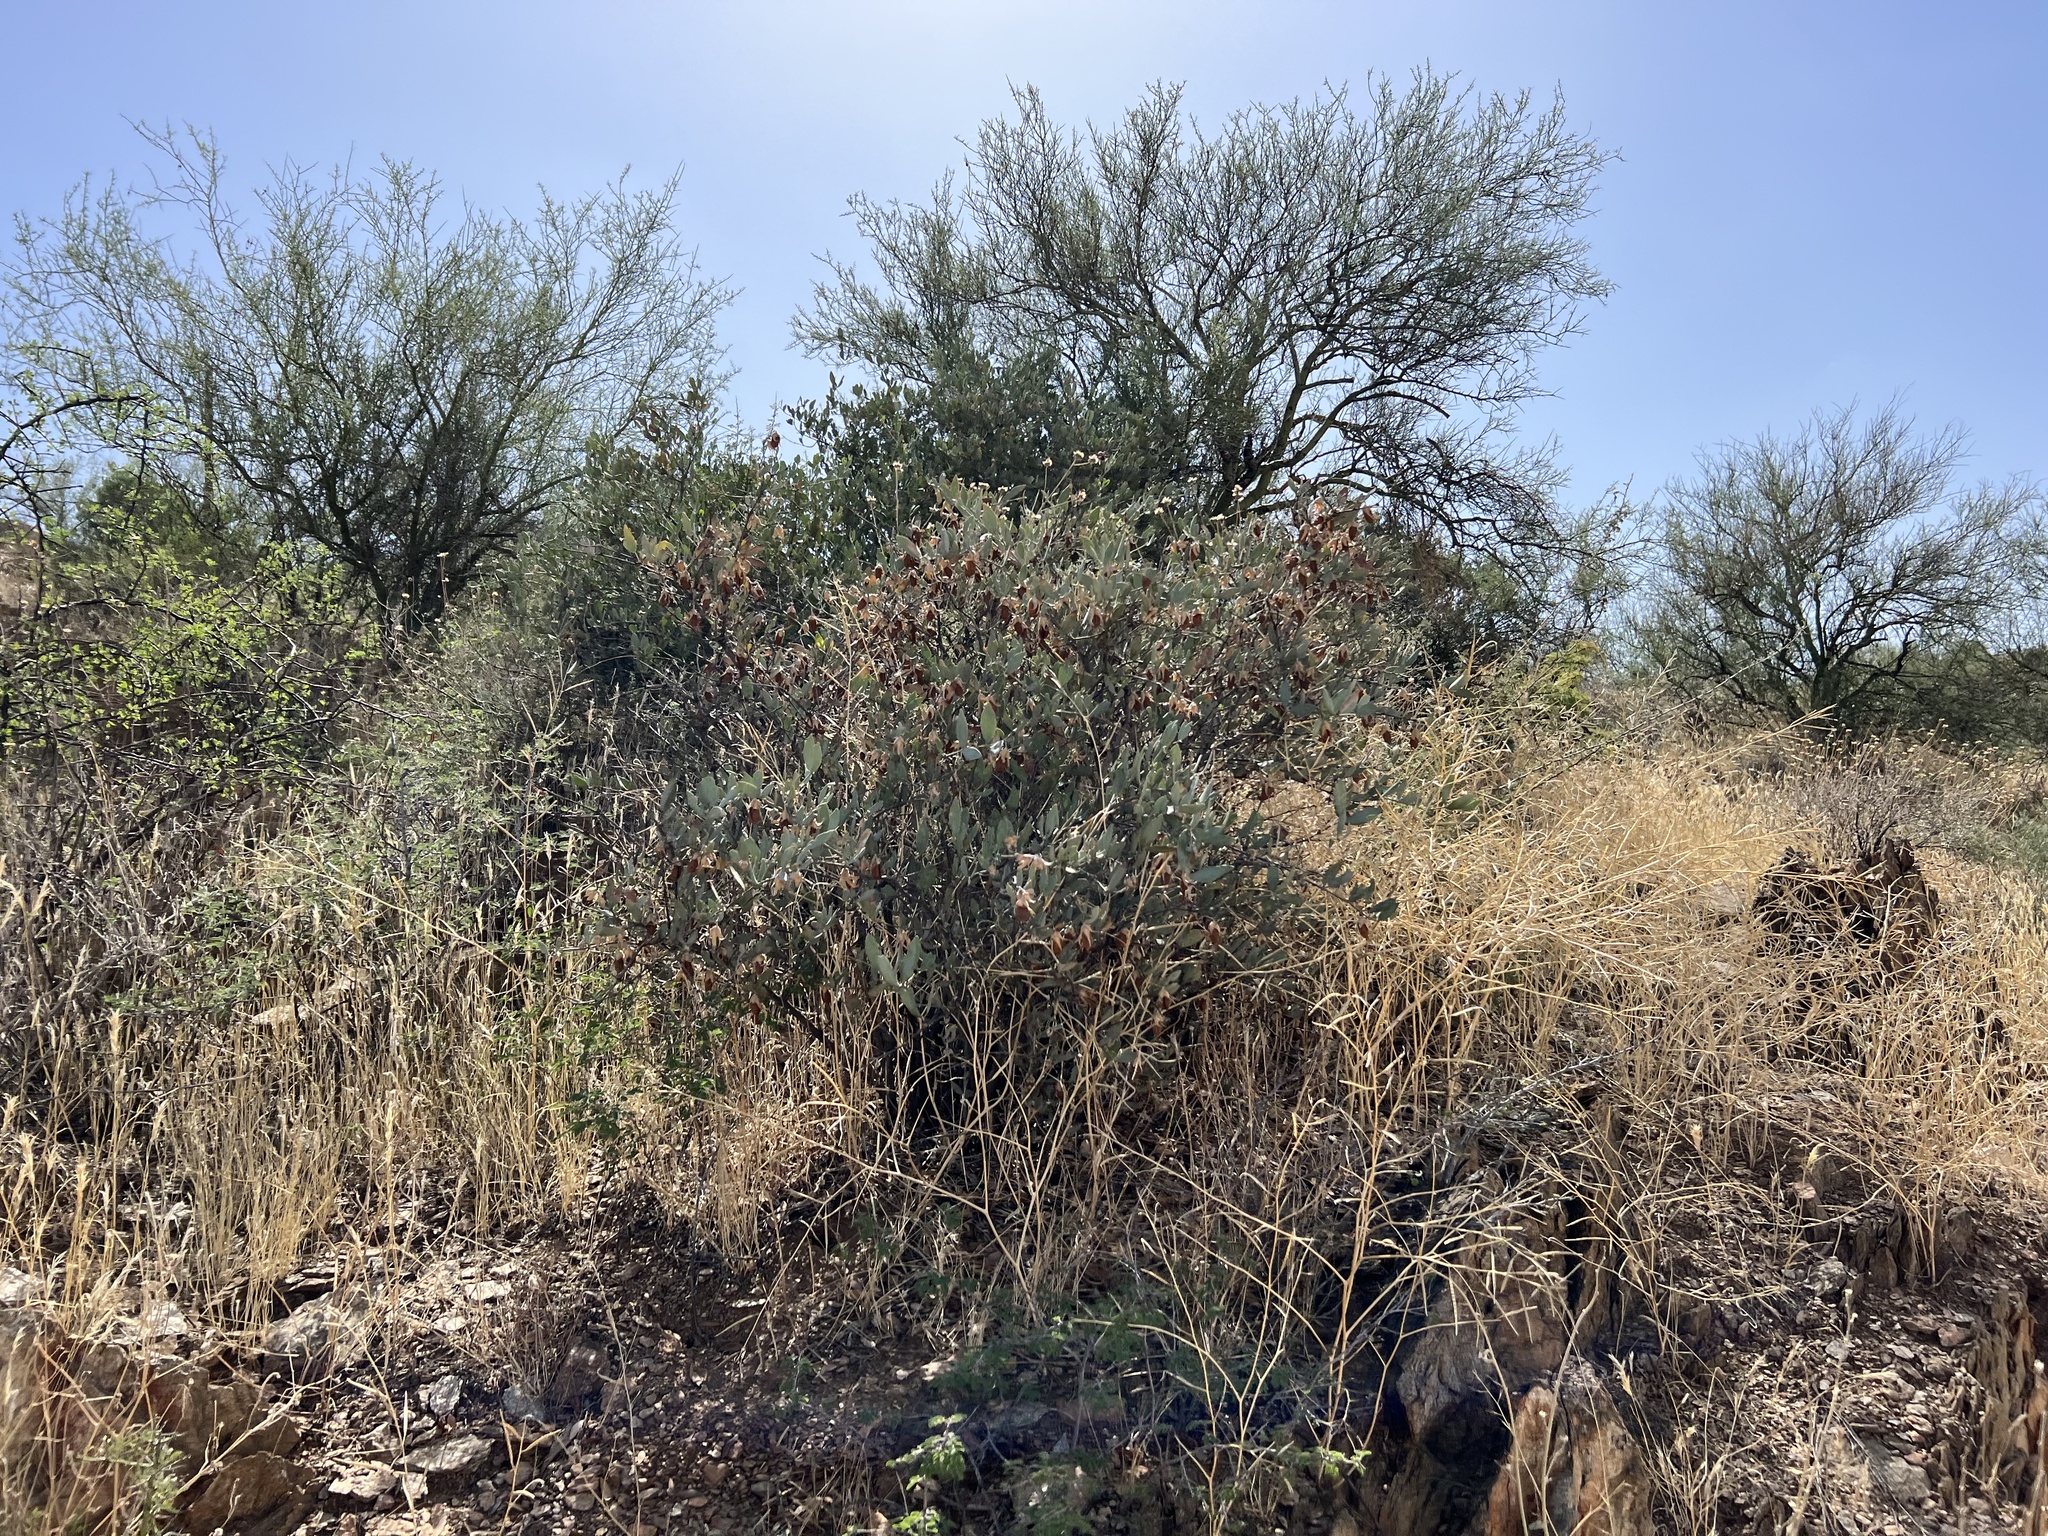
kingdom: Plantae
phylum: Tracheophyta
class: Magnoliopsida
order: Caryophyllales
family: Simmondsiaceae
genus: Simmondsia
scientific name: Simmondsia chinensis
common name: Jojoba
